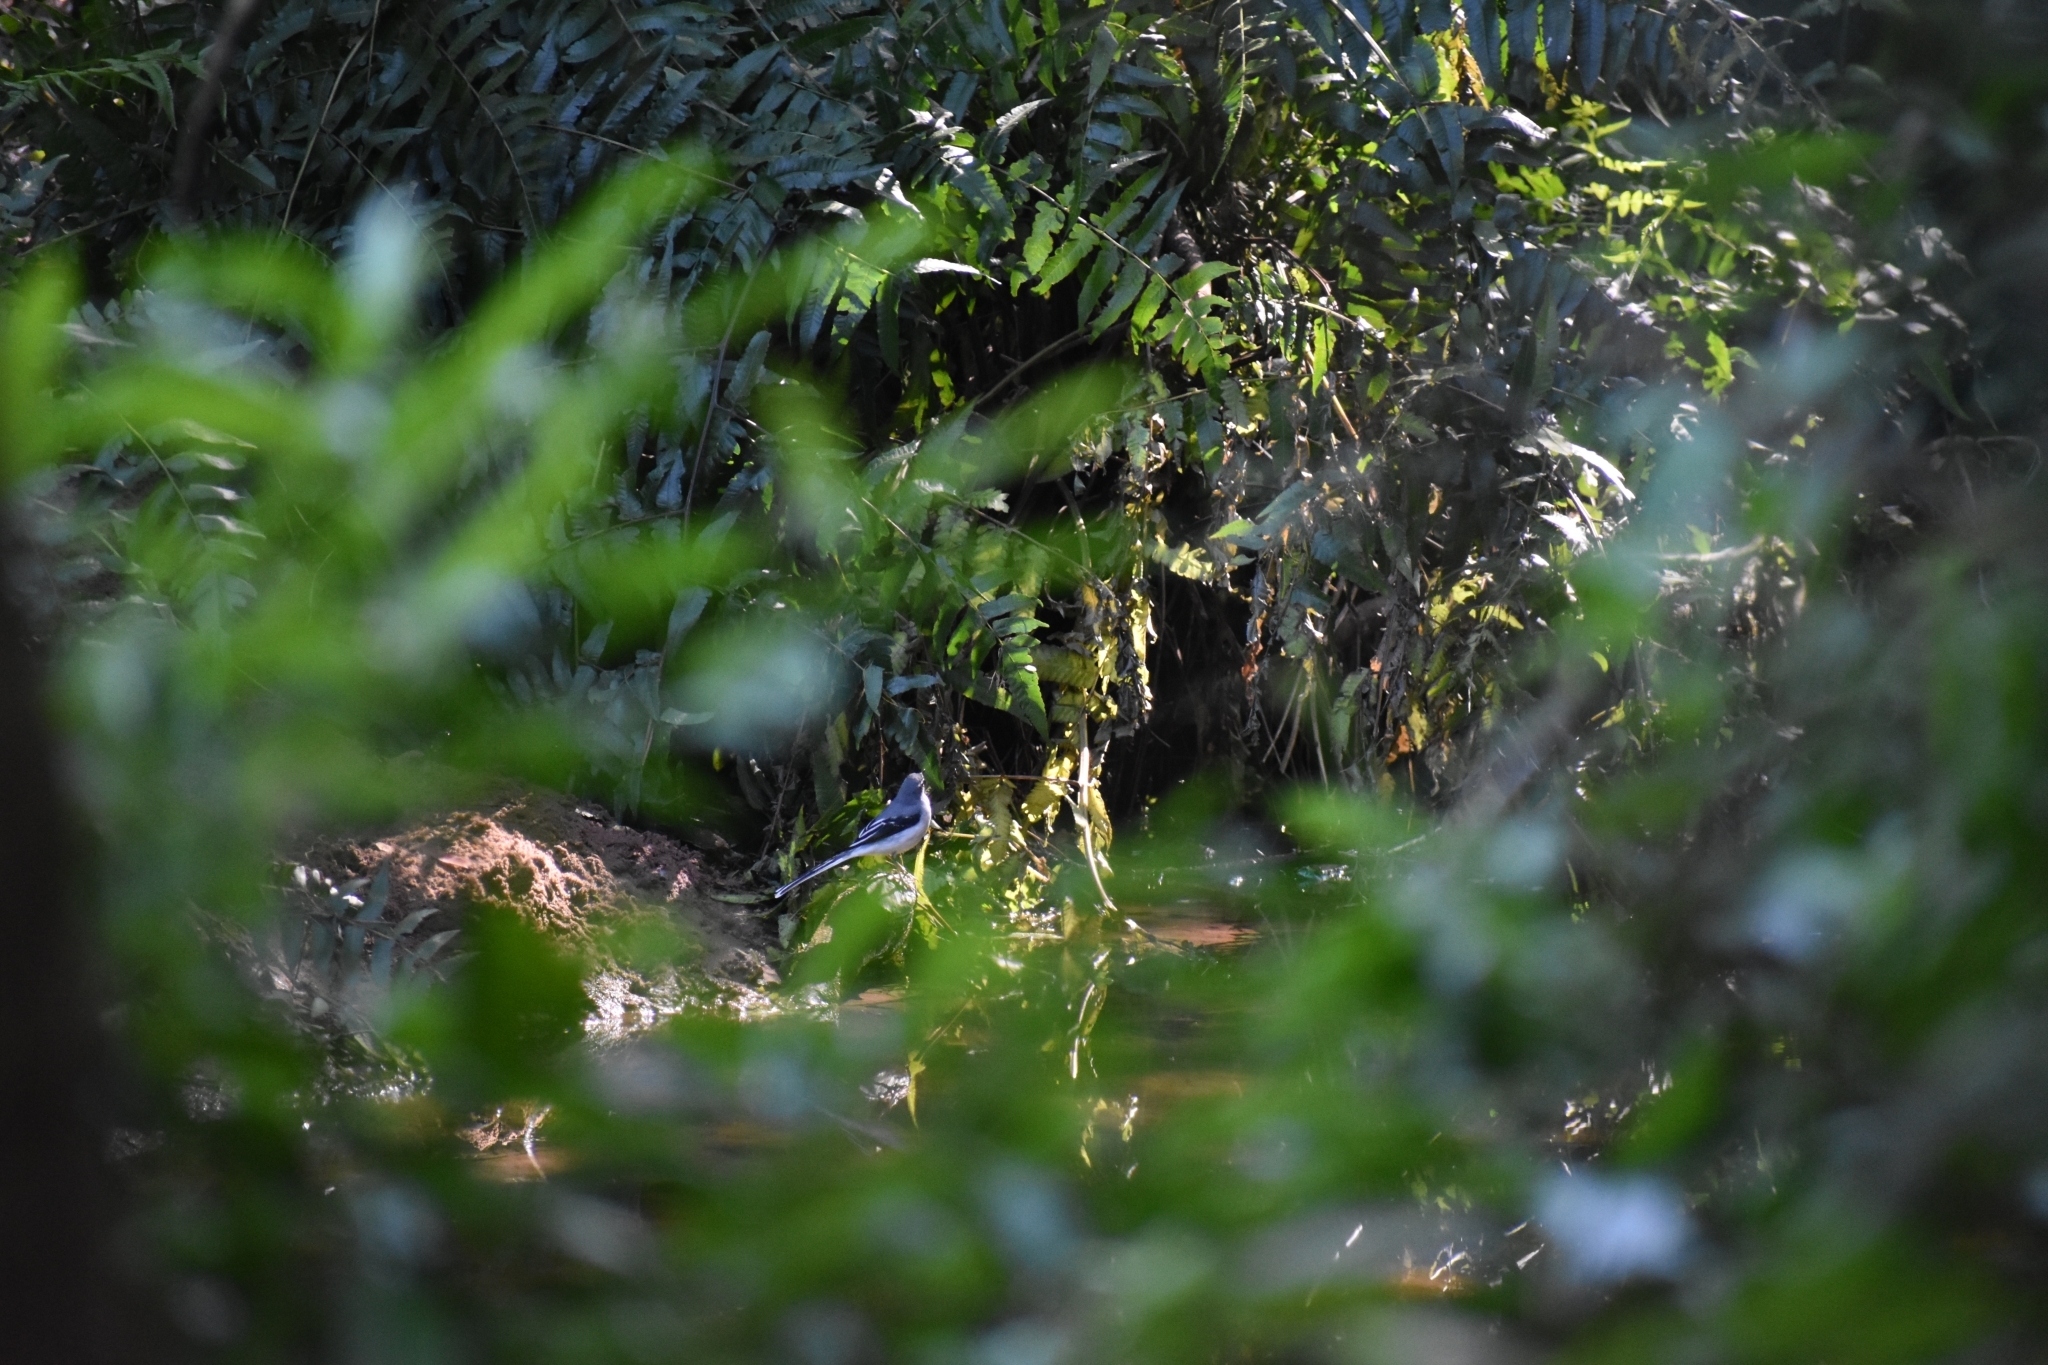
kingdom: Animalia
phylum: Chordata
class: Aves
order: Passeriformes
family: Motacillidae
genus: Motacilla
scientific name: Motacilla clara
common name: Mountain wagtail
